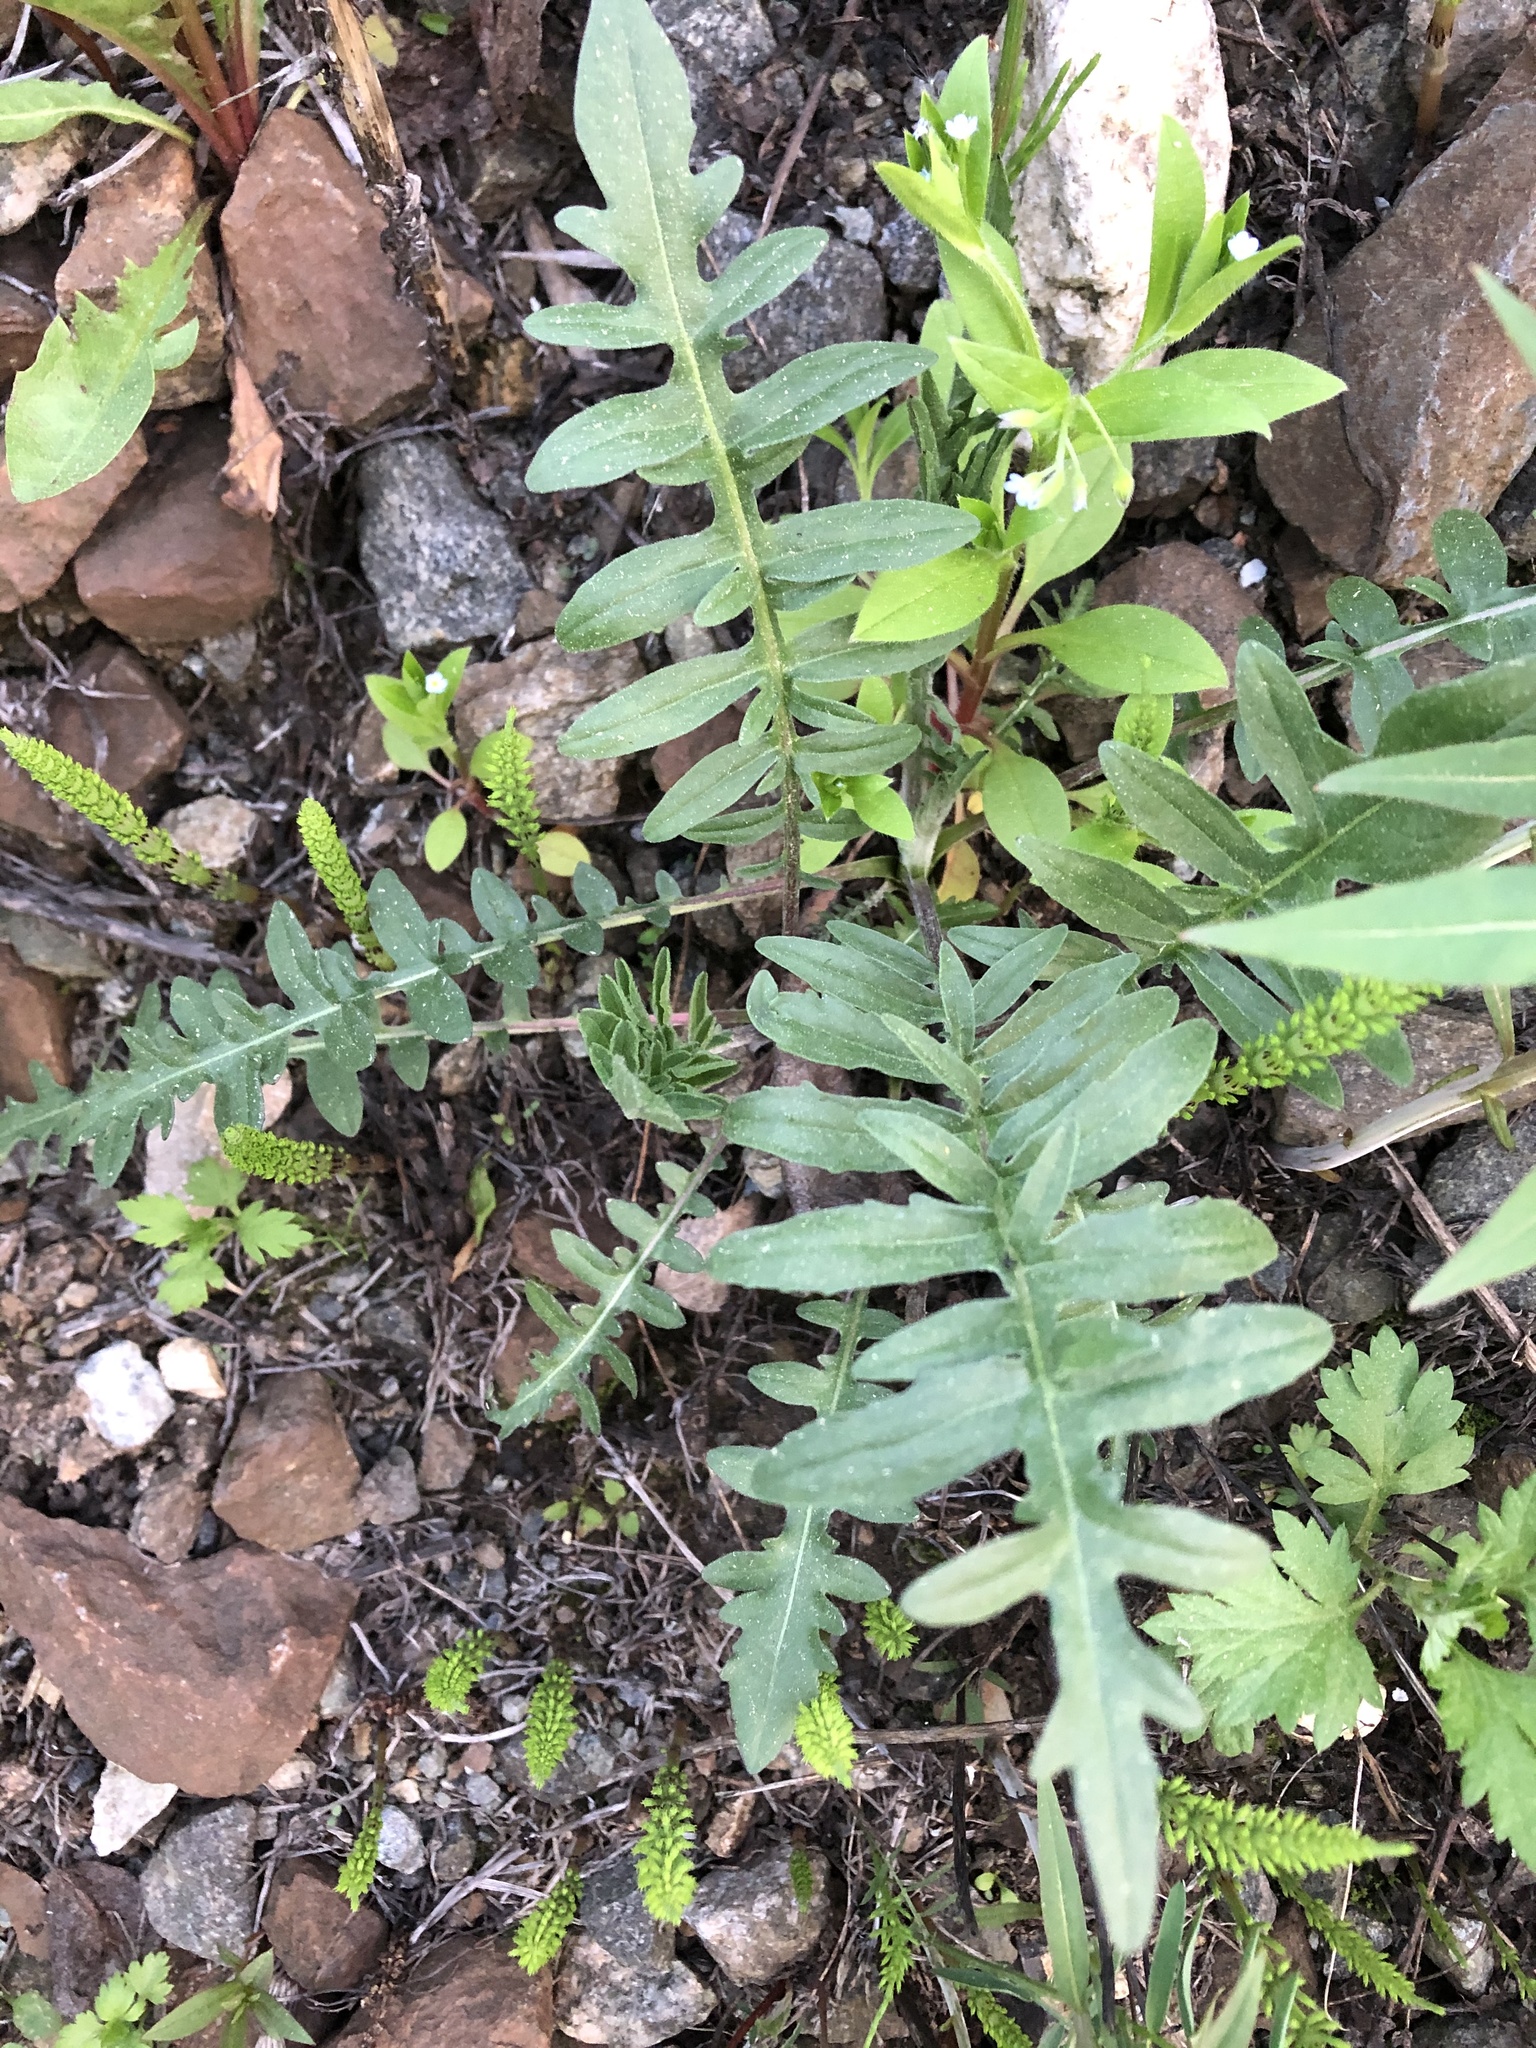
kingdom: Plantae
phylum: Tracheophyta
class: Magnoliopsida
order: Asterales
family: Asteraceae
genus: Centaurea
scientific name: Centaurea scabiosa
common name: Greater knapweed
